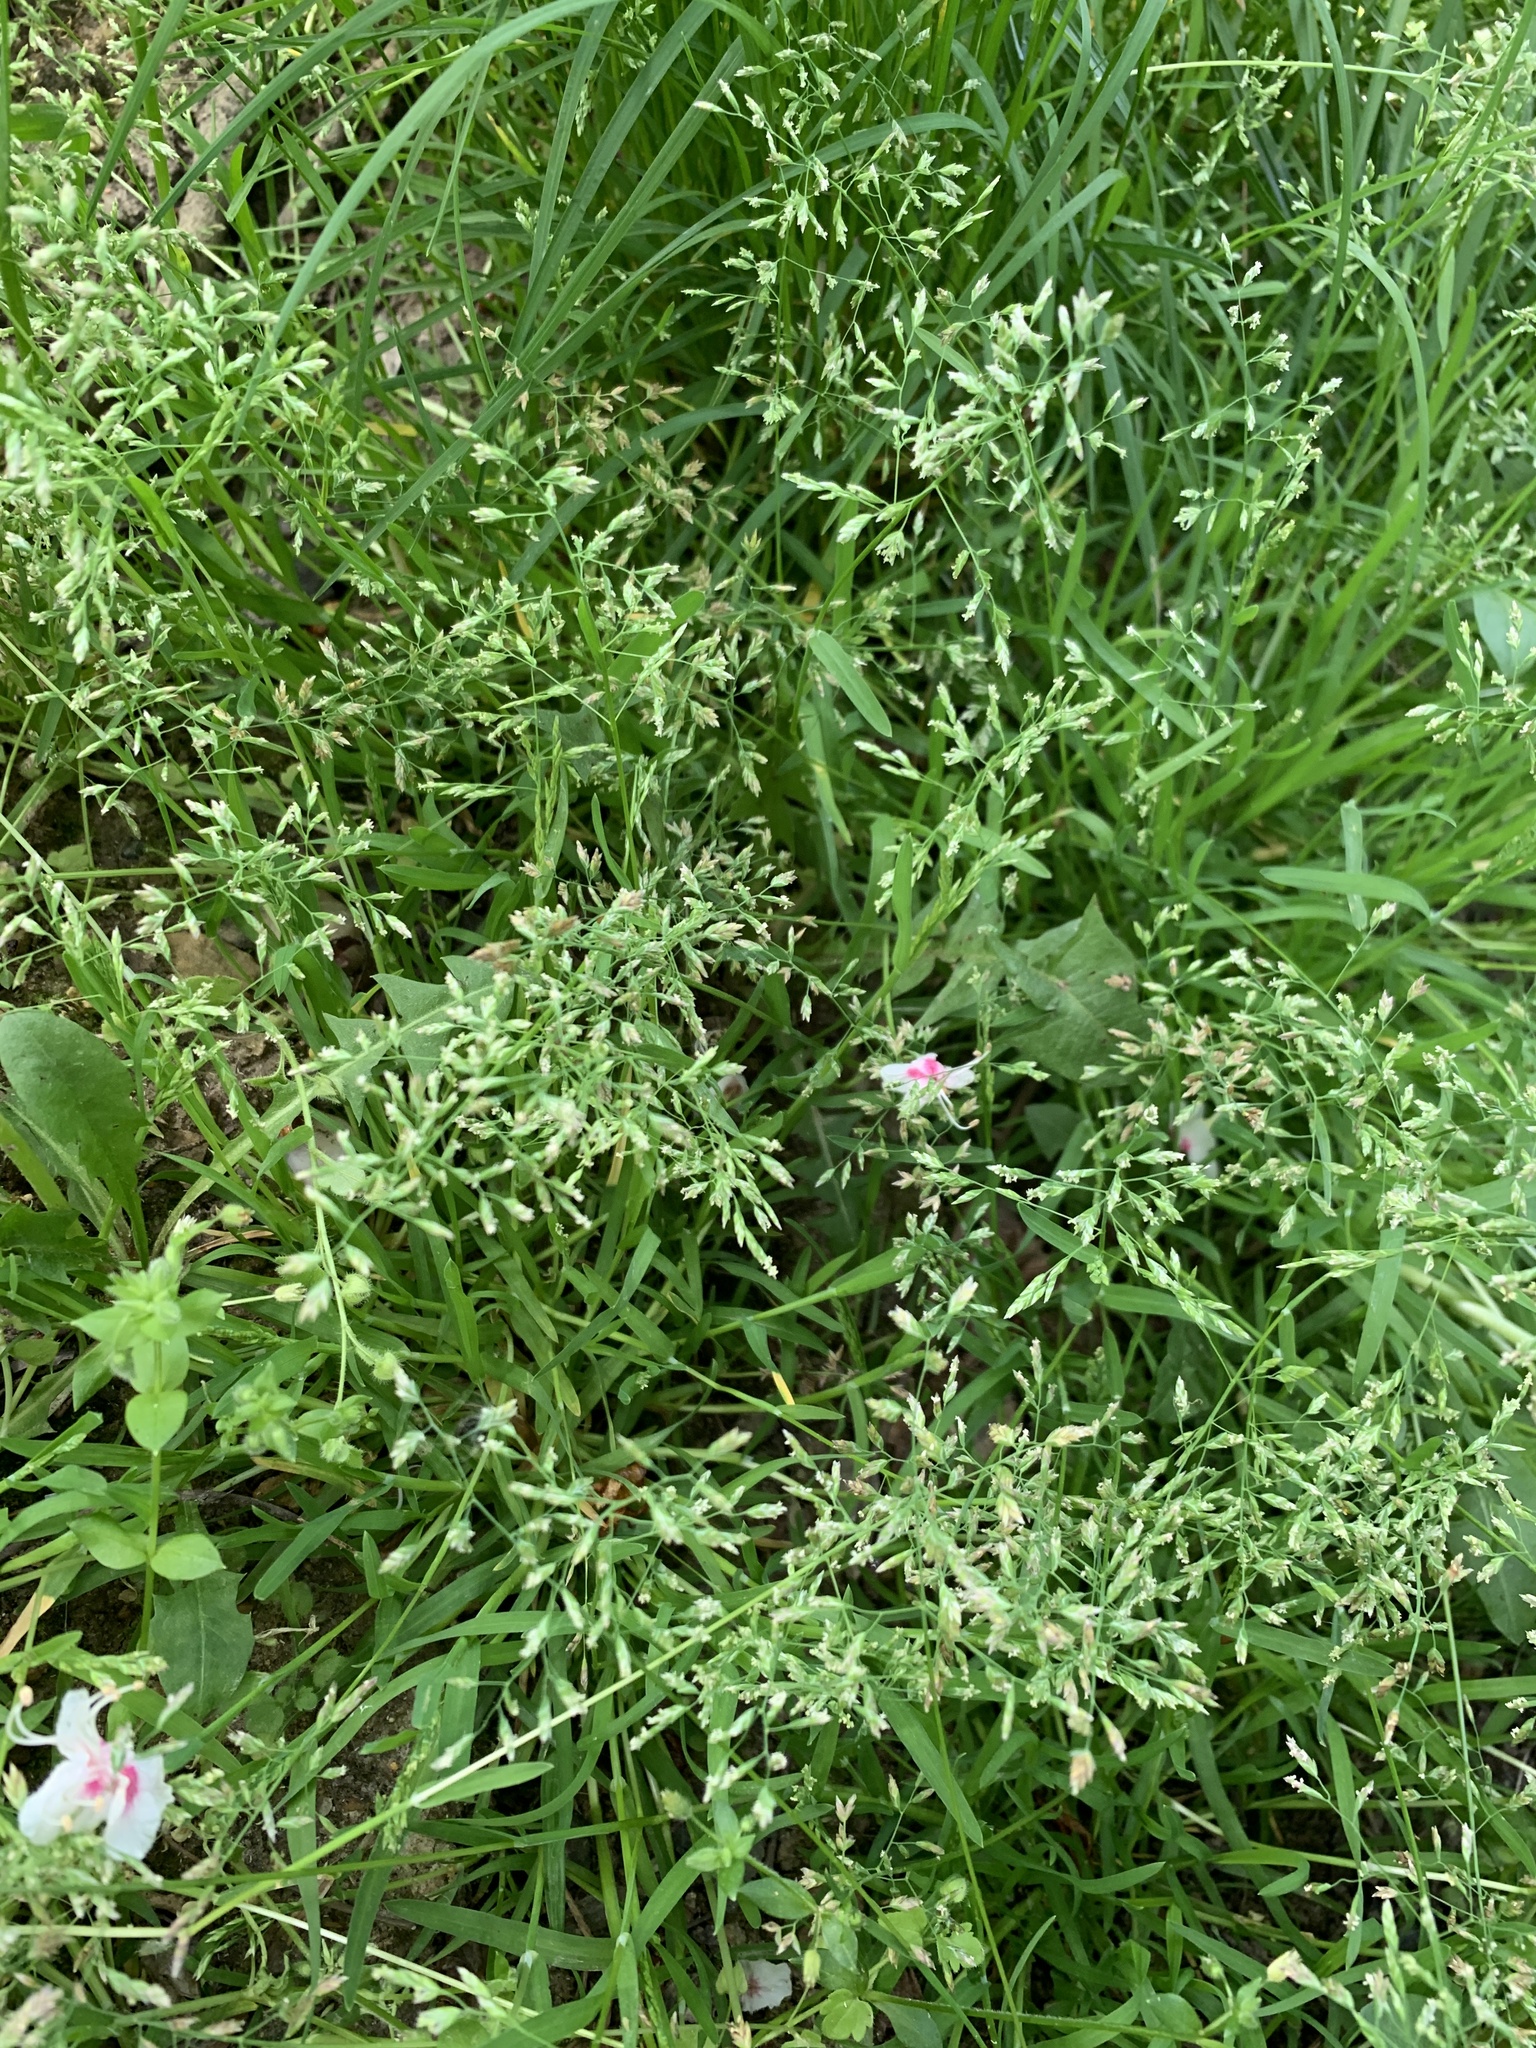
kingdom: Plantae
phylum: Tracheophyta
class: Liliopsida
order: Poales
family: Poaceae
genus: Poa
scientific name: Poa annua
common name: Annual bluegrass
